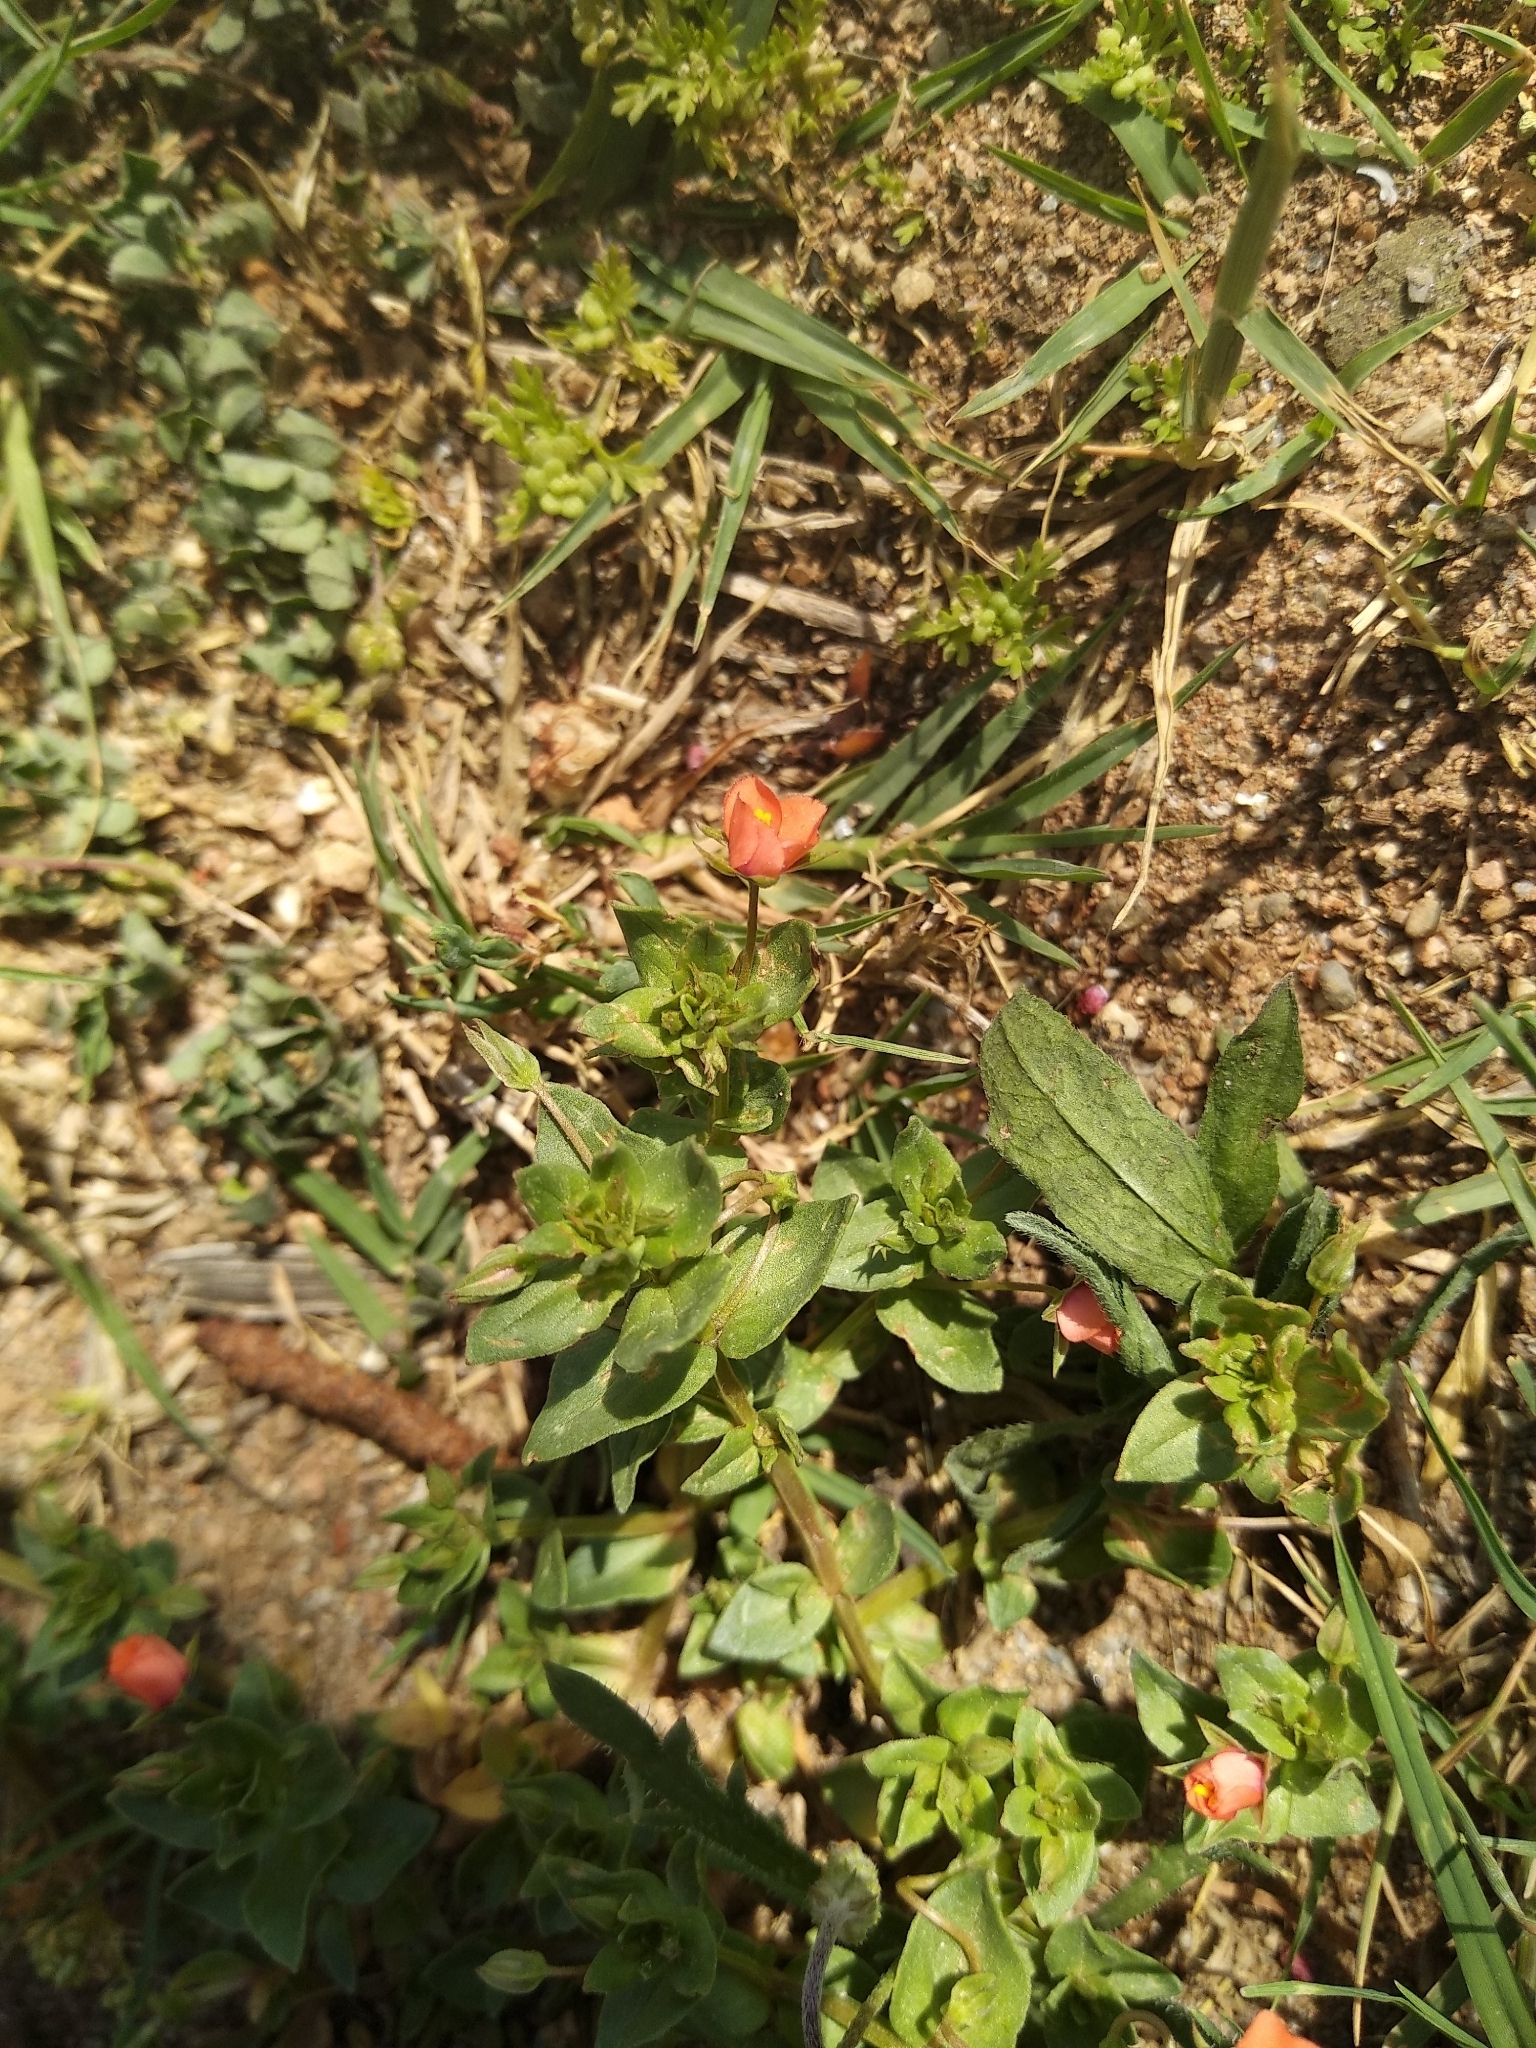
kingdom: Plantae
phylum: Tracheophyta
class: Magnoliopsida
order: Ericales
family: Primulaceae
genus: Lysimachia
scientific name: Lysimachia arvensis
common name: Scarlet pimpernel
